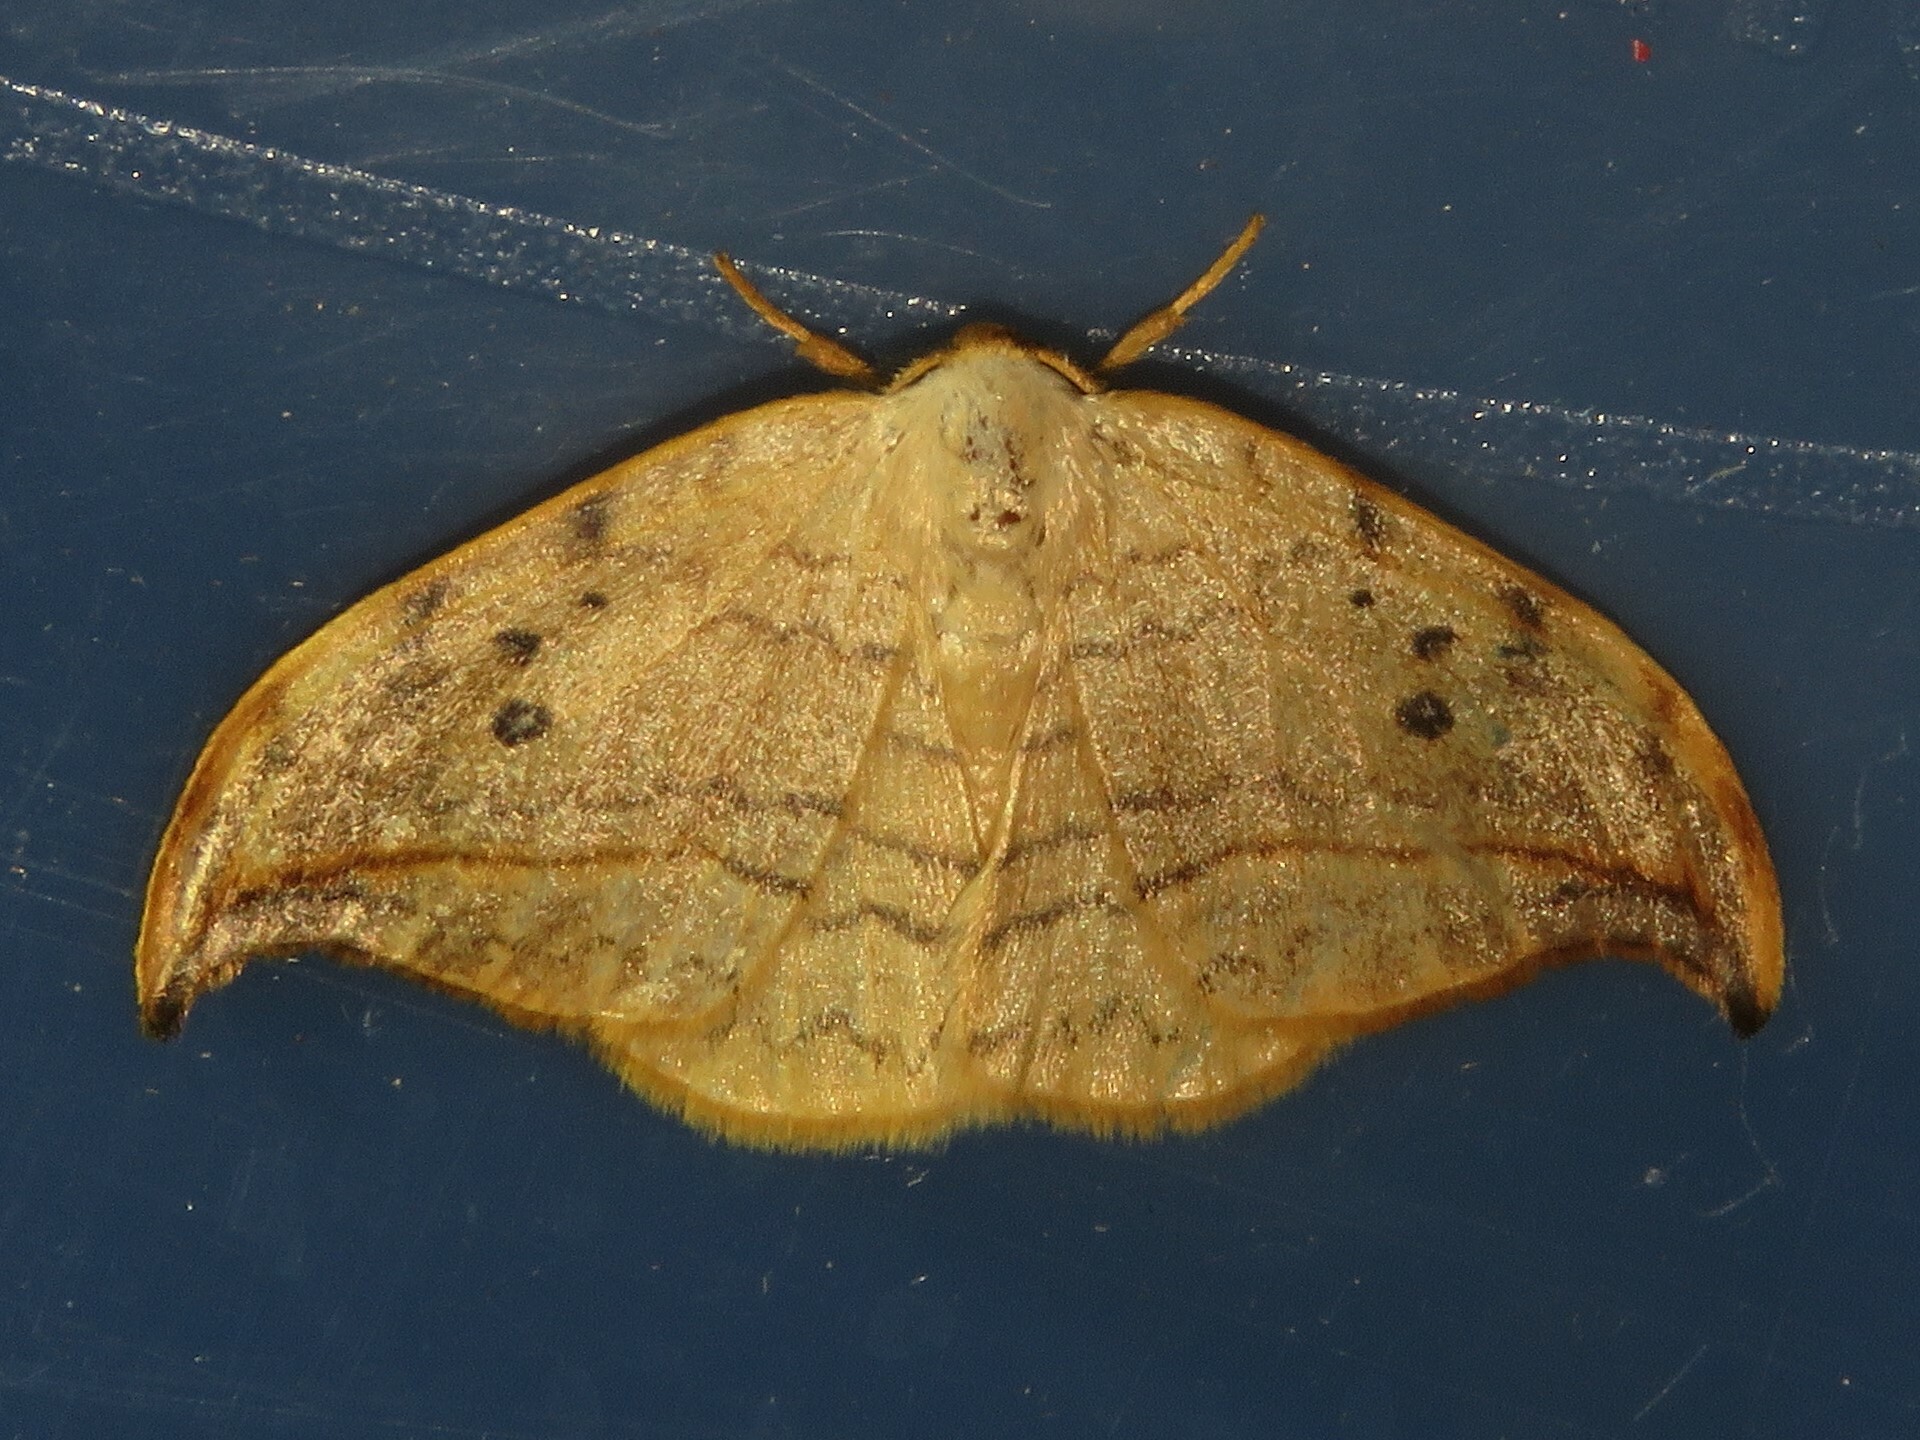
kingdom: Animalia
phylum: Arthropoda
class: Insecta
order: Lepidoptera
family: Drepanidae
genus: Drepana
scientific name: Drepana arcuata
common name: Arched hooktip moth
